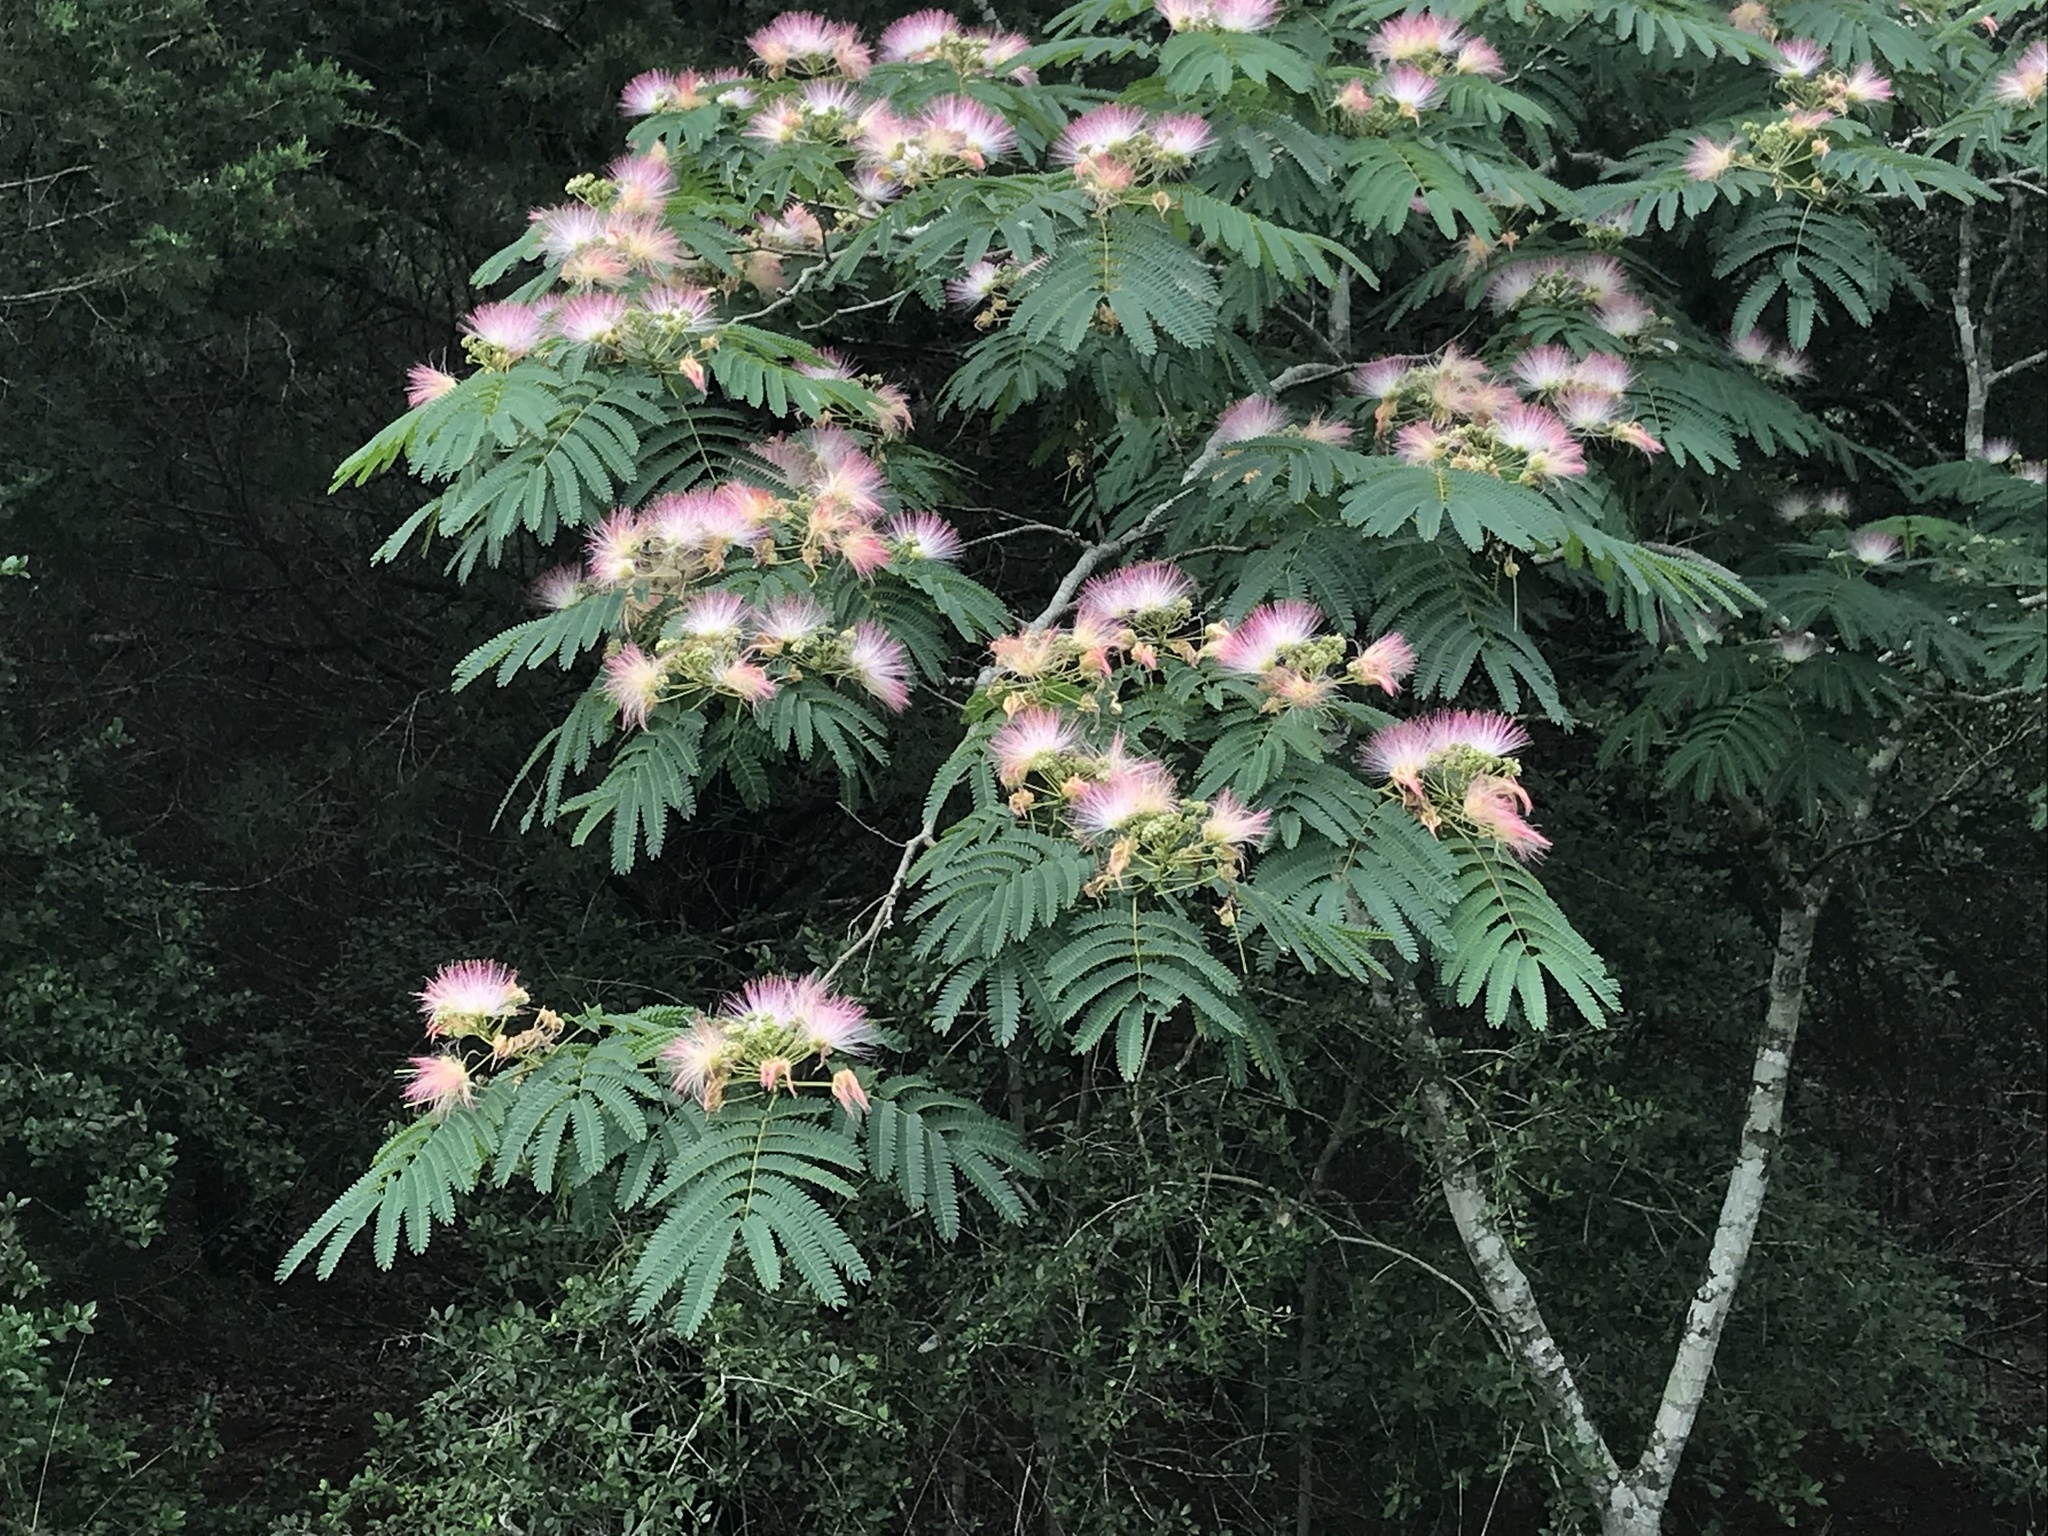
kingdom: Plantae
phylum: Tracheophyta
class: Magnoliopsida
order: Fabales
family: Fabaceae
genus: Albizia
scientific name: Albizia julibrissin
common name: Silktree
